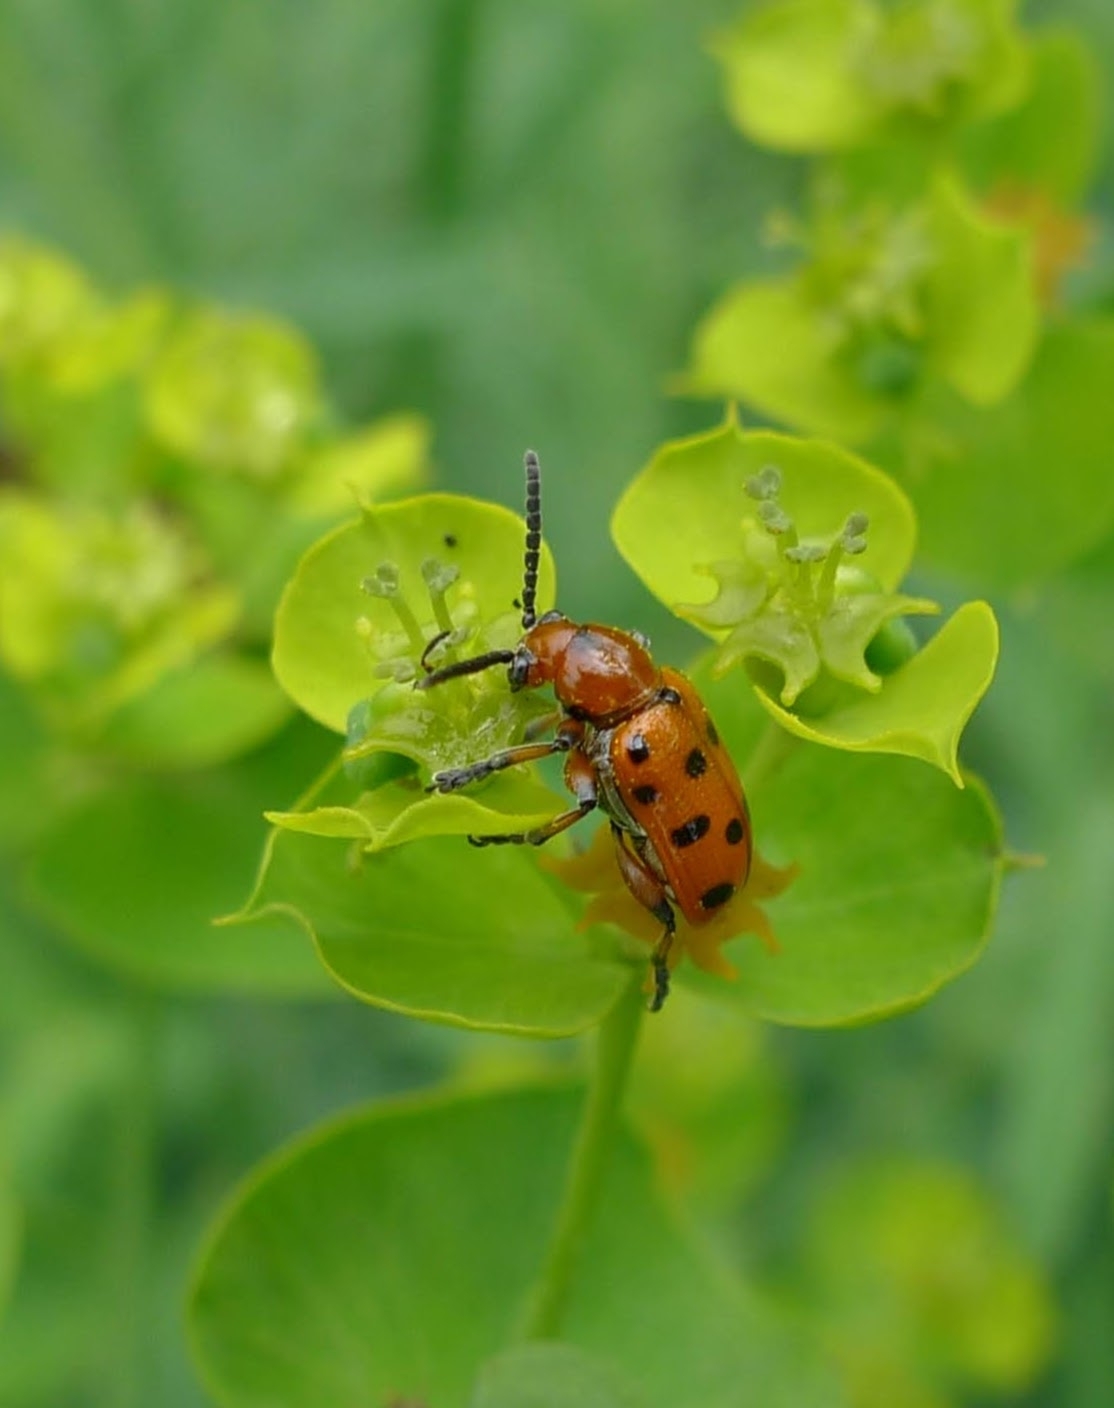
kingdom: Animalia
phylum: Arthropoda
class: Insecta
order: Coleoptera
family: Chrysomelidae
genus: Crioceris
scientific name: Crioceris duodecimpunctata
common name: Twelve-spotted asparagus beetle
